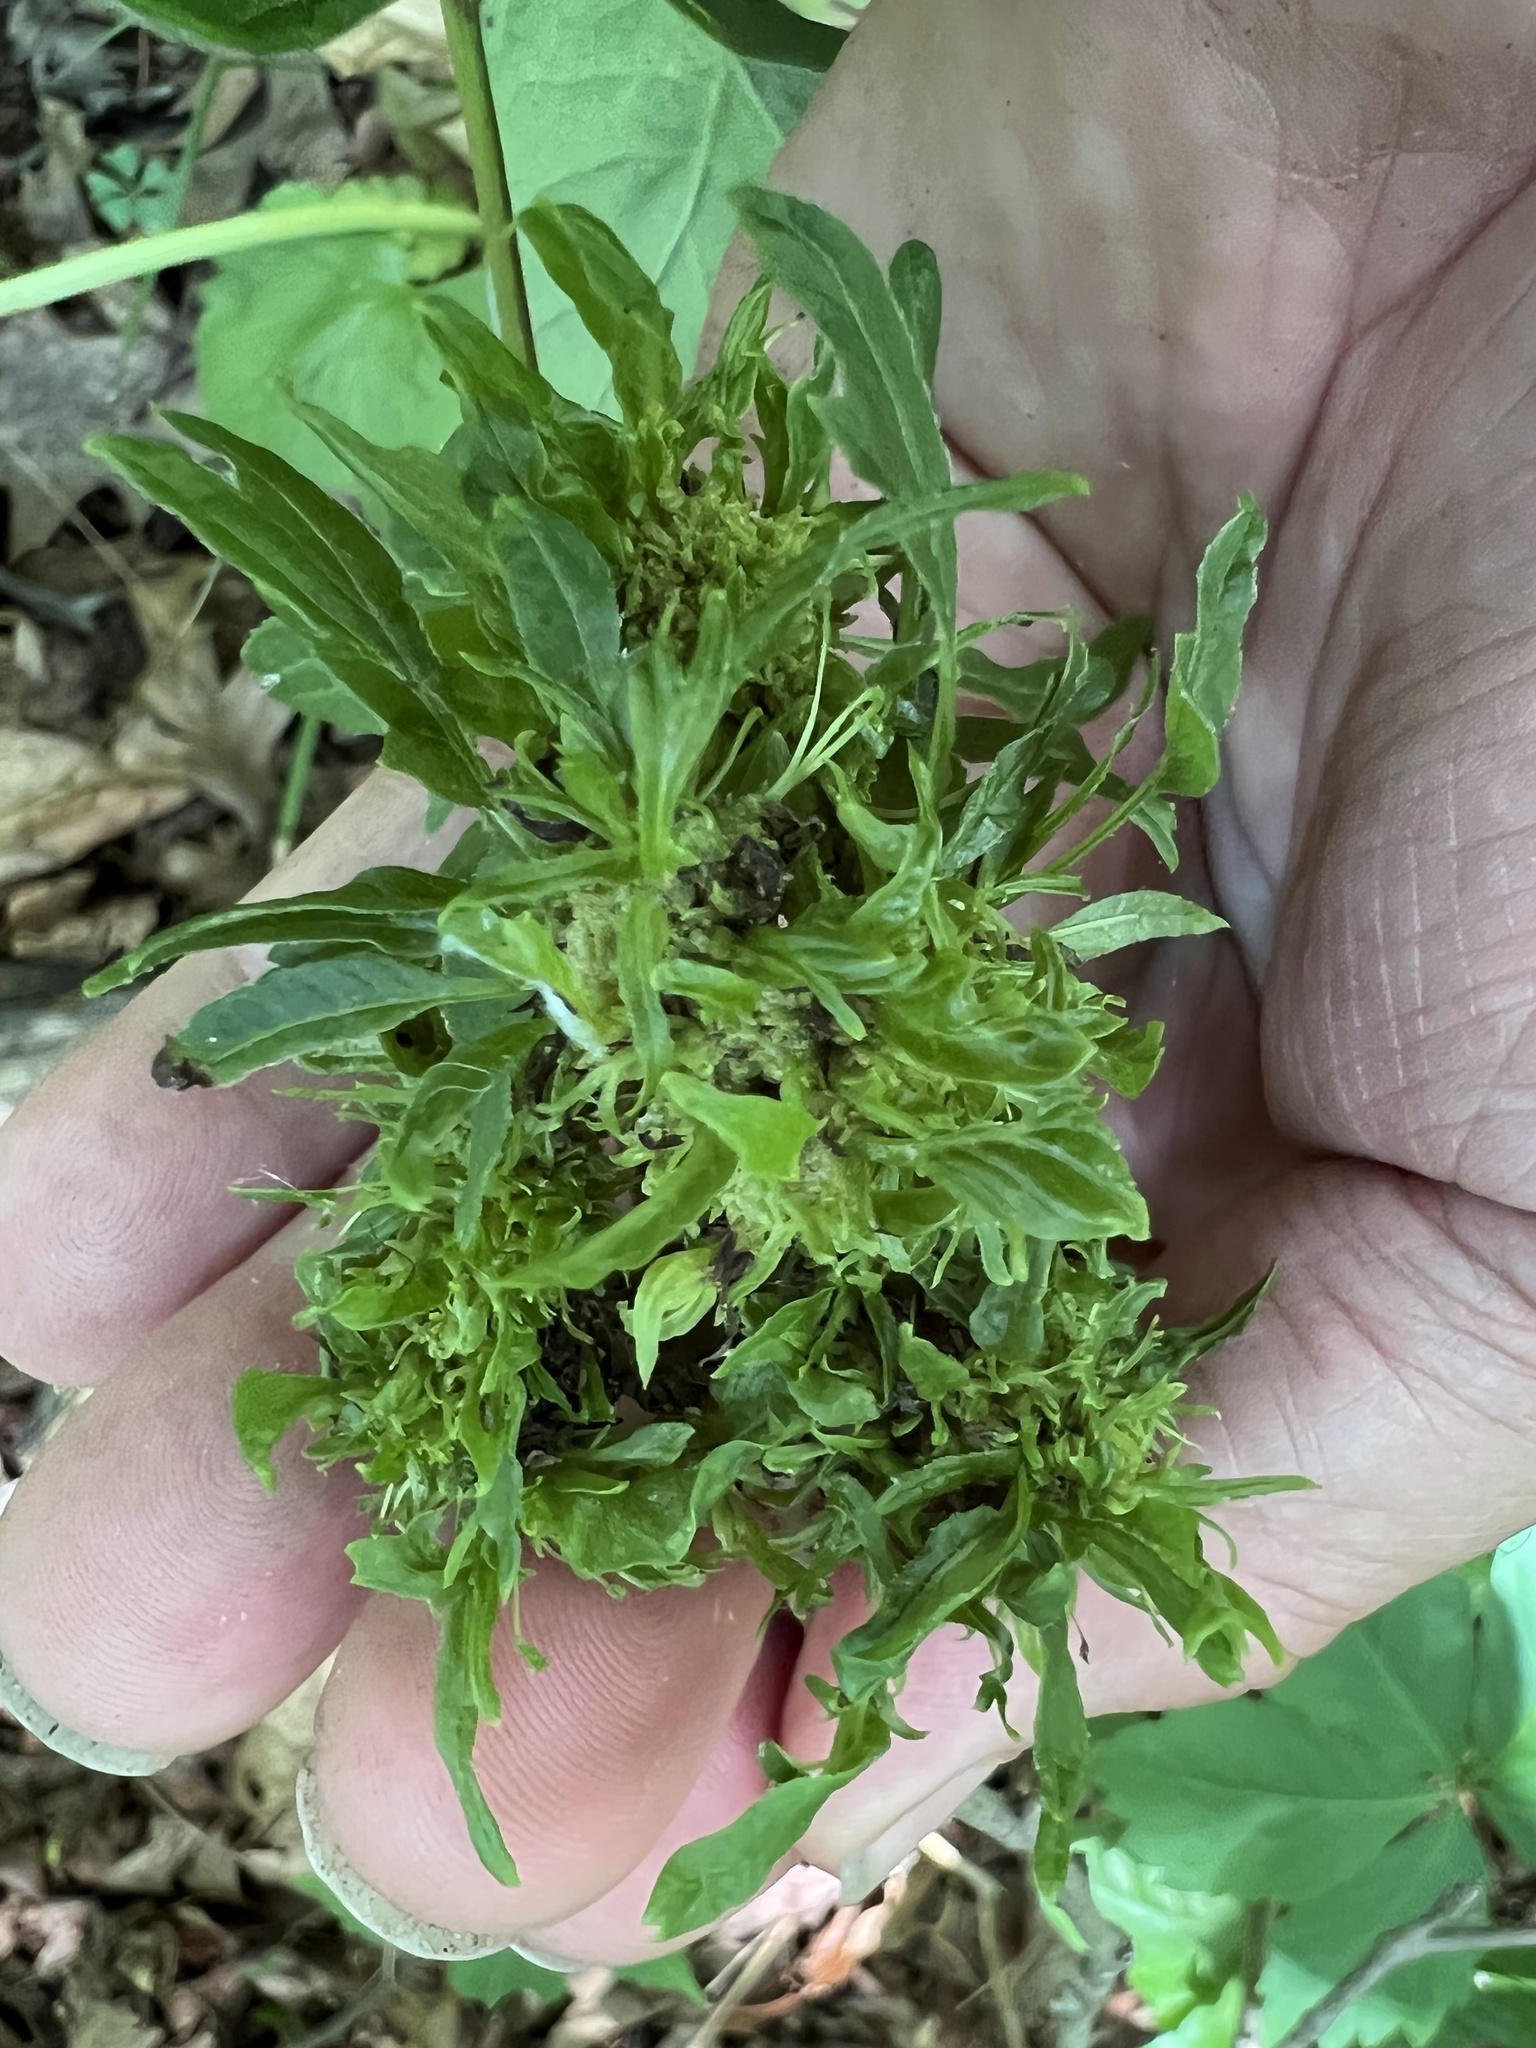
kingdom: Bacteria
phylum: Firmicutes
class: Bacilli
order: Acholeplasmatales
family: Acholeplasmataceae
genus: Phytoplasma
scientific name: Phytoplasma
